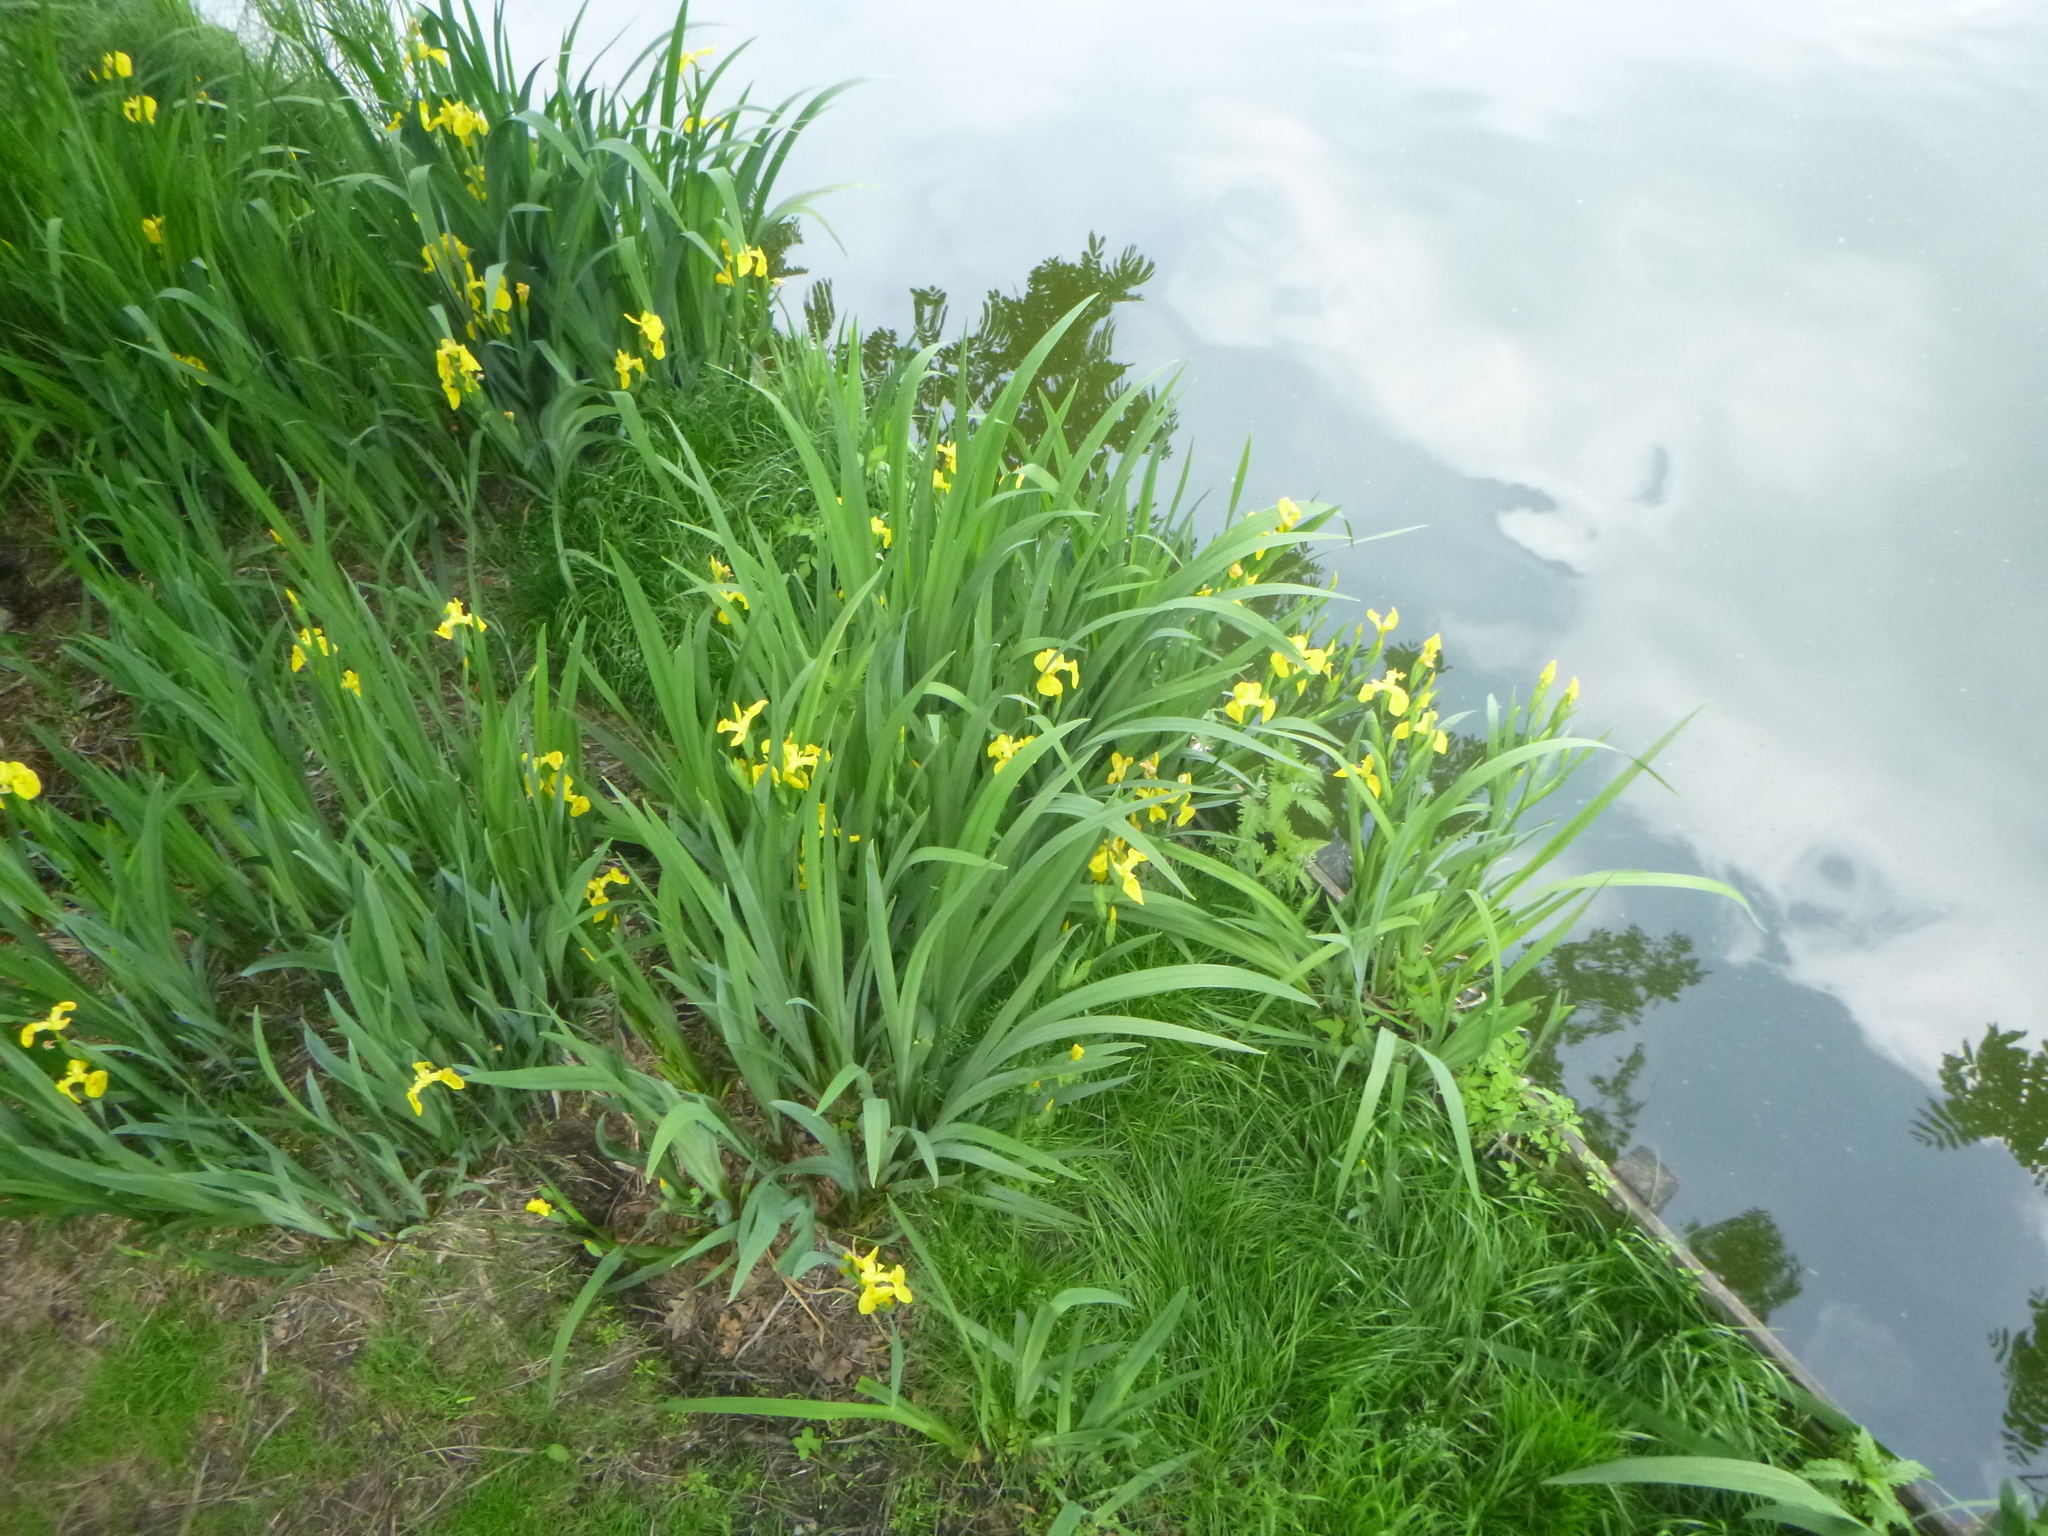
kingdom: Plantae
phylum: Tracheophyta
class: Liliopsida
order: Asparagales
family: Iridaceae
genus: Iris
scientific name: Iris pseudacorus
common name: Yellow flag
